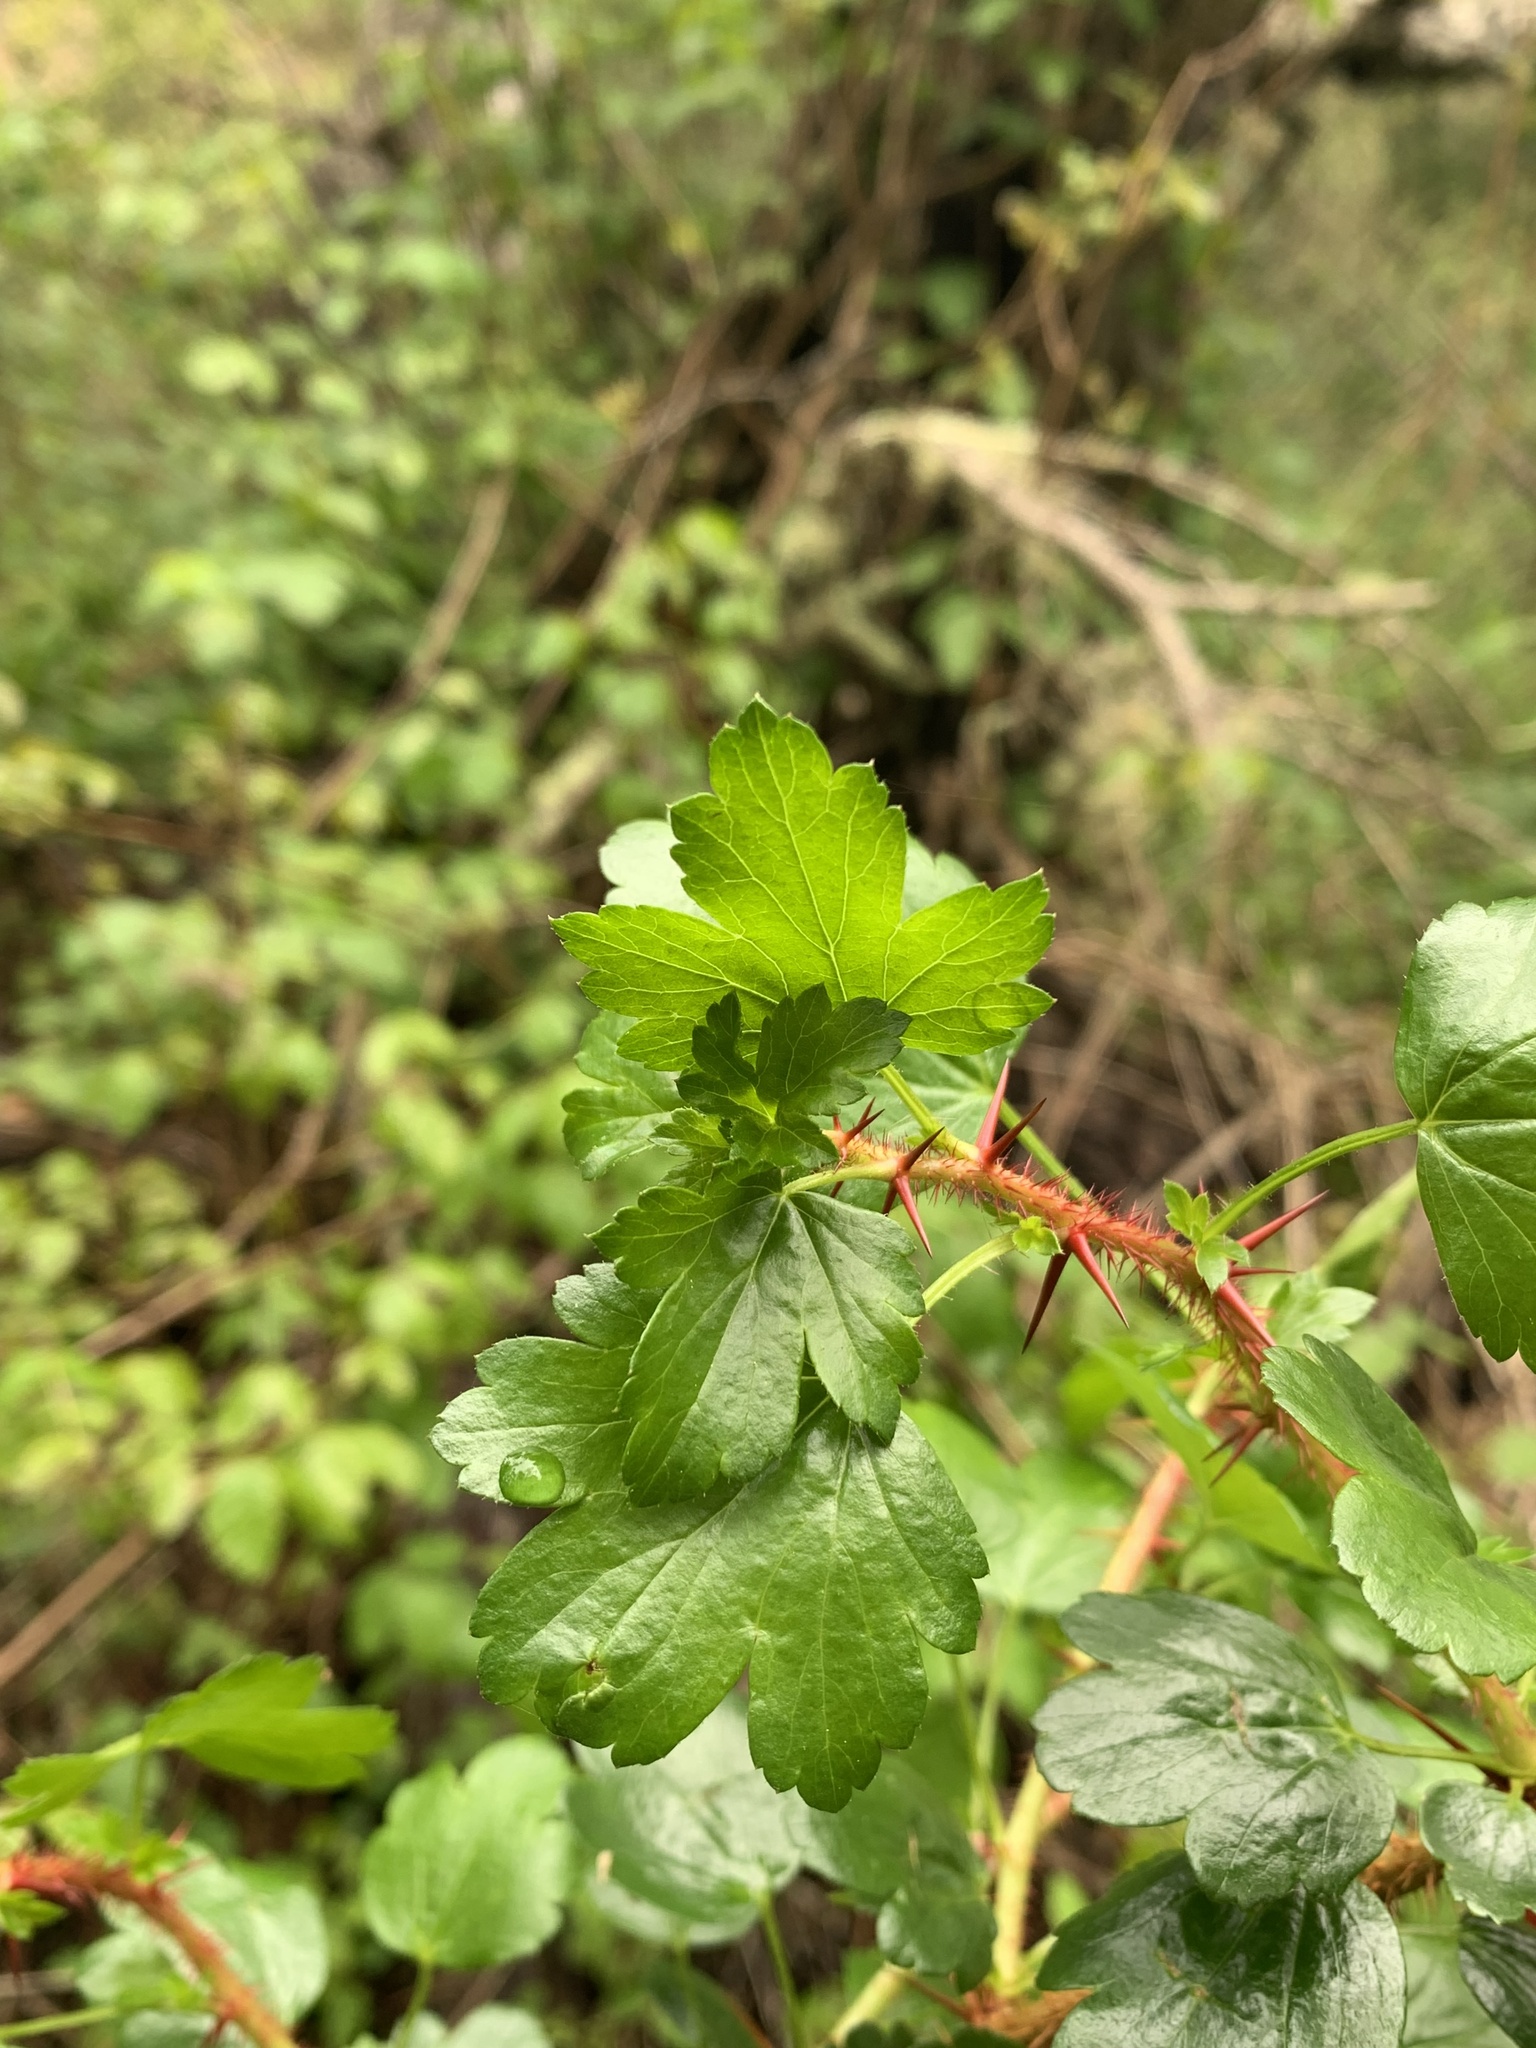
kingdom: Plantae
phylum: Tracheophyta
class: Magnoliopsida
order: Saxifragales
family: Grossulariaceae
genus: Ribes
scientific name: Ribes speciosum
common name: Fuchsia-flower gooseberry
